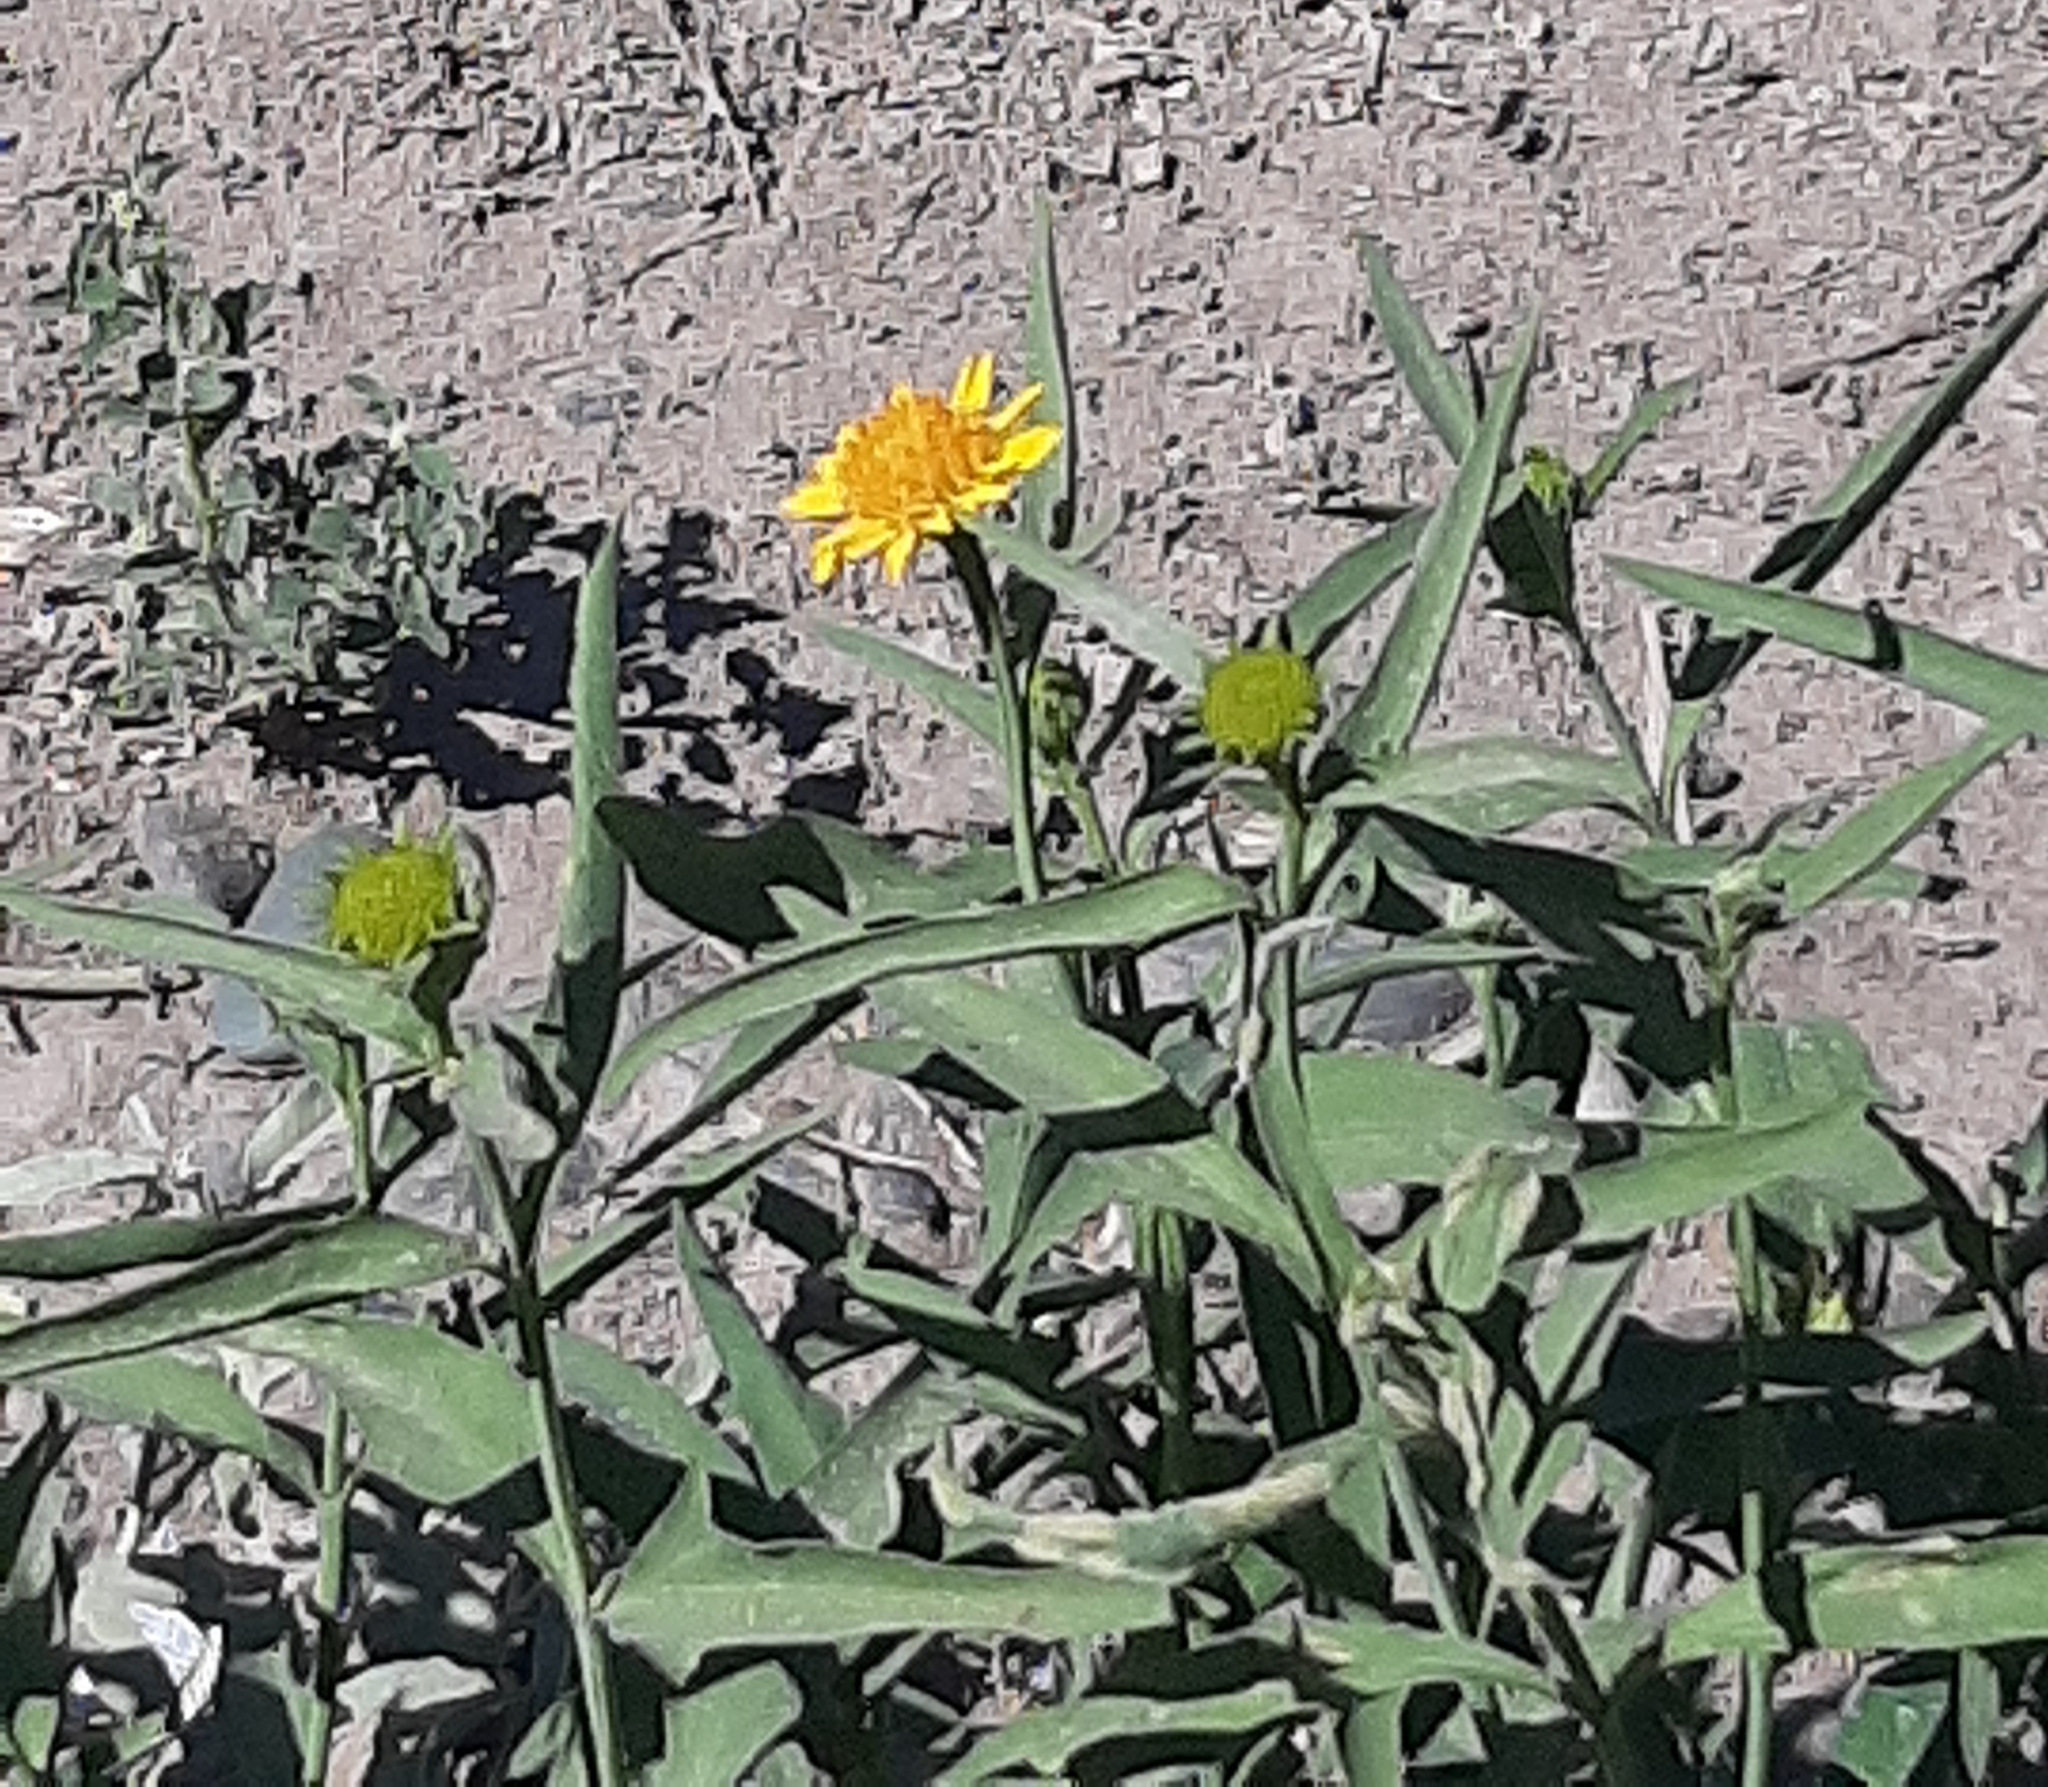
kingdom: Plantae
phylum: Tracheophyta
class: Magnoliopsida
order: Asterales
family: Asteraceae
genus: Pascalia
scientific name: Pascalia glauca
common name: Beach creeping oxeye
